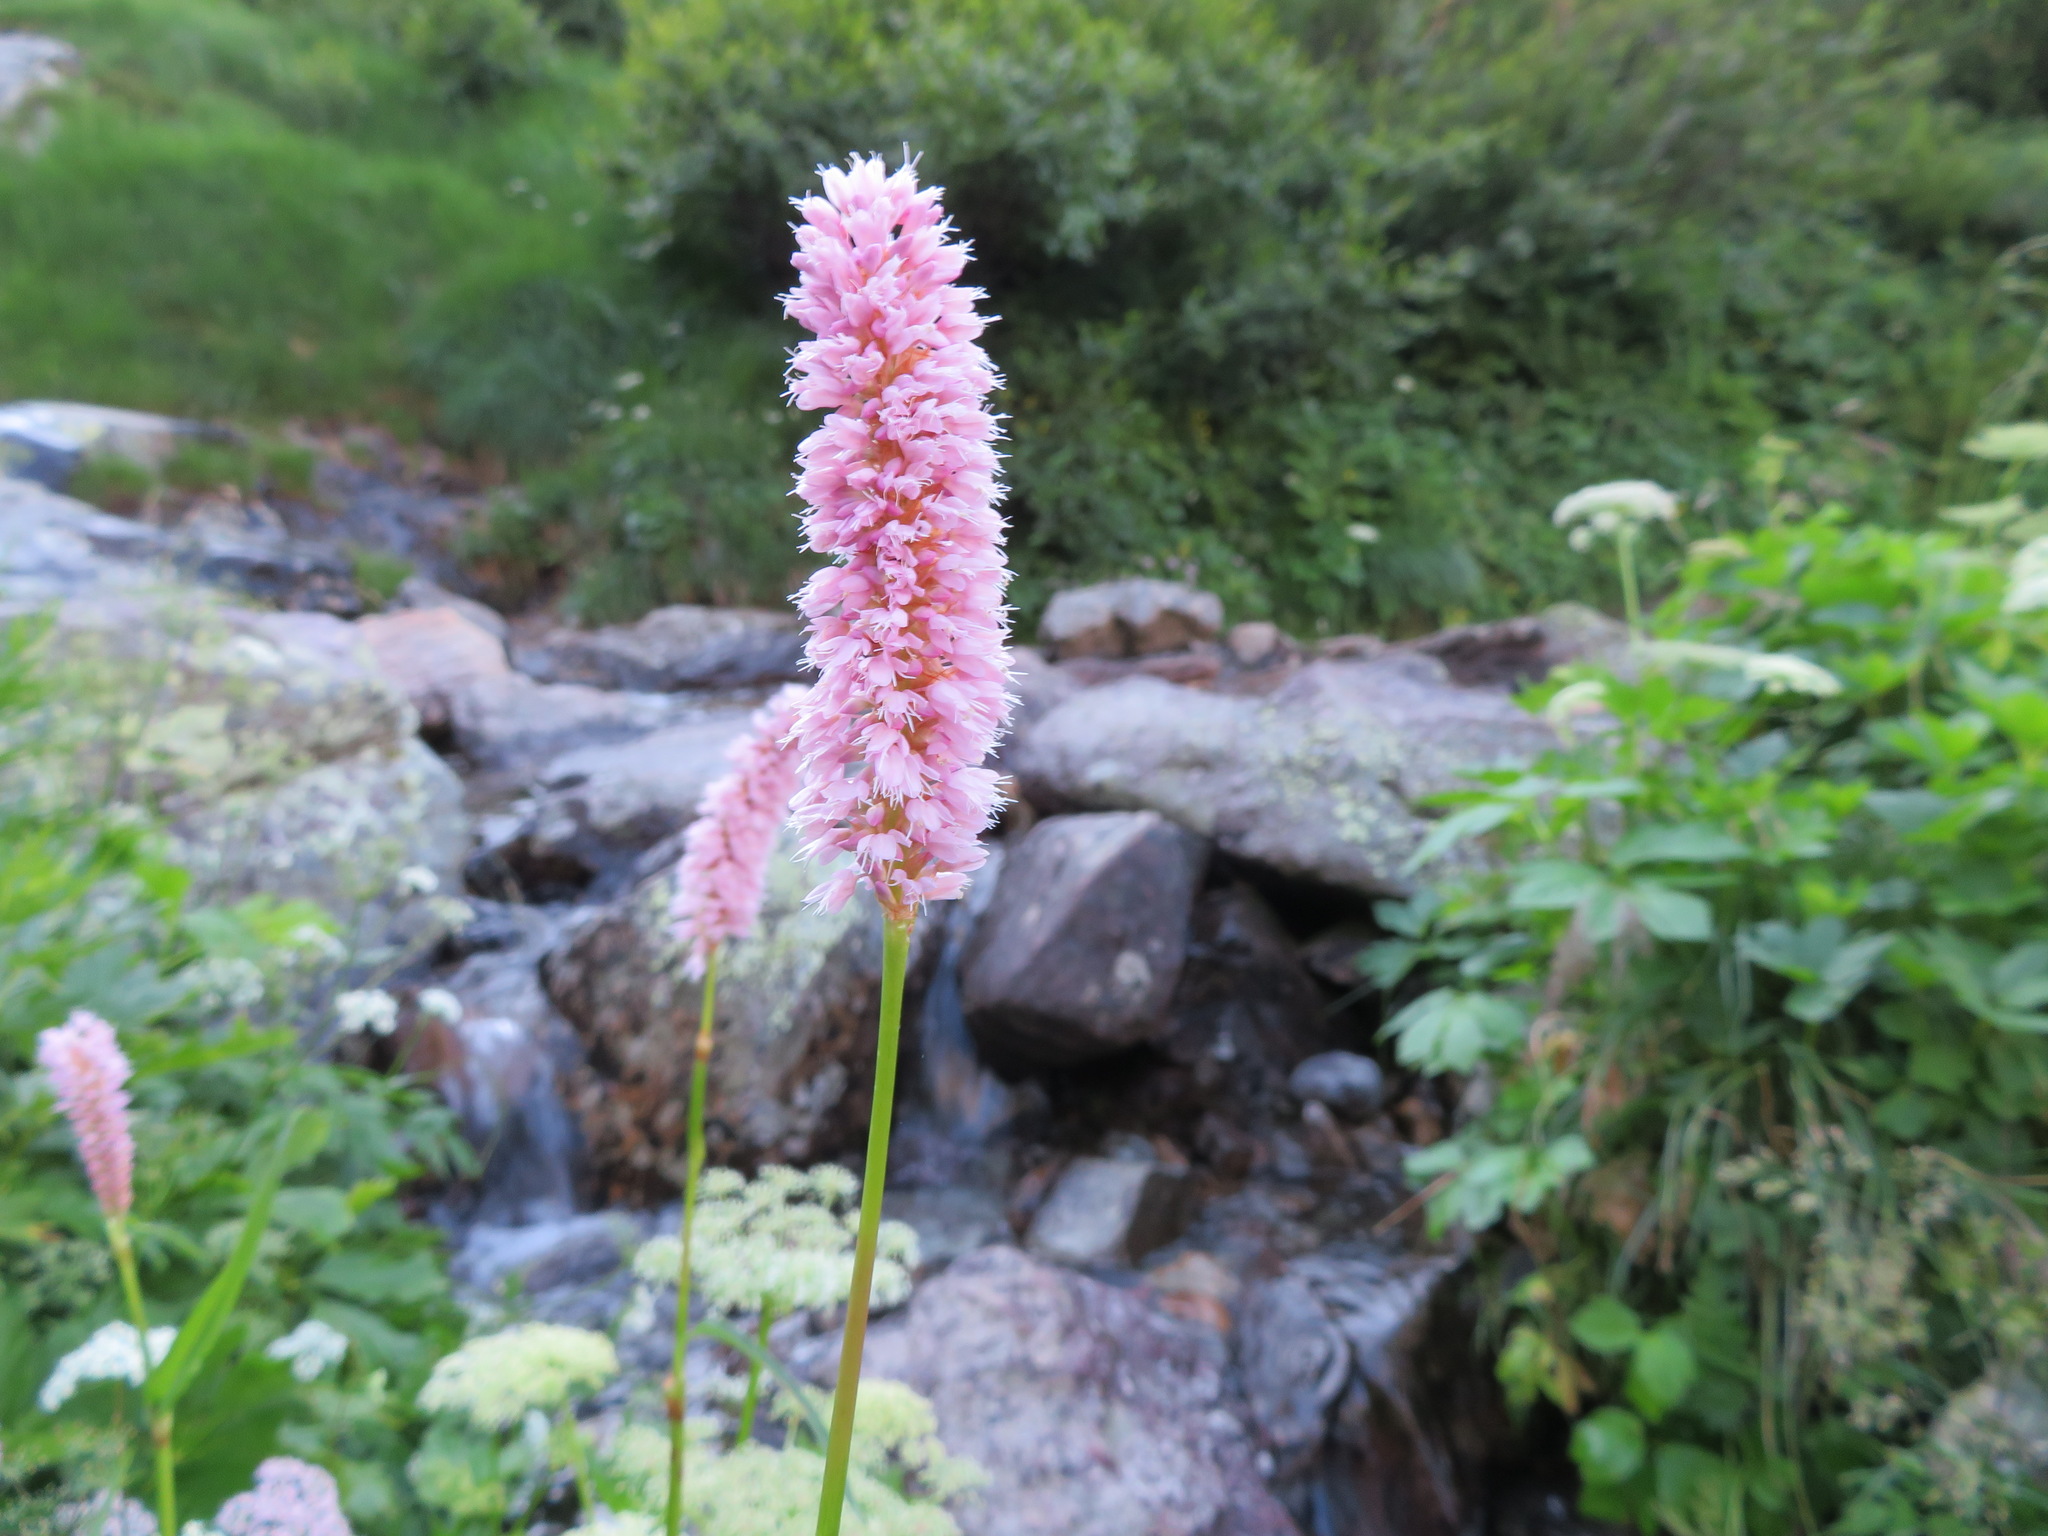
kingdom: Plantae
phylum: Tracheophyta
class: Magnoliopsida
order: Caryophyllales
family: Polygonaceae
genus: Bistorta
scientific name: Bistorta officinalis
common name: Common bistort
